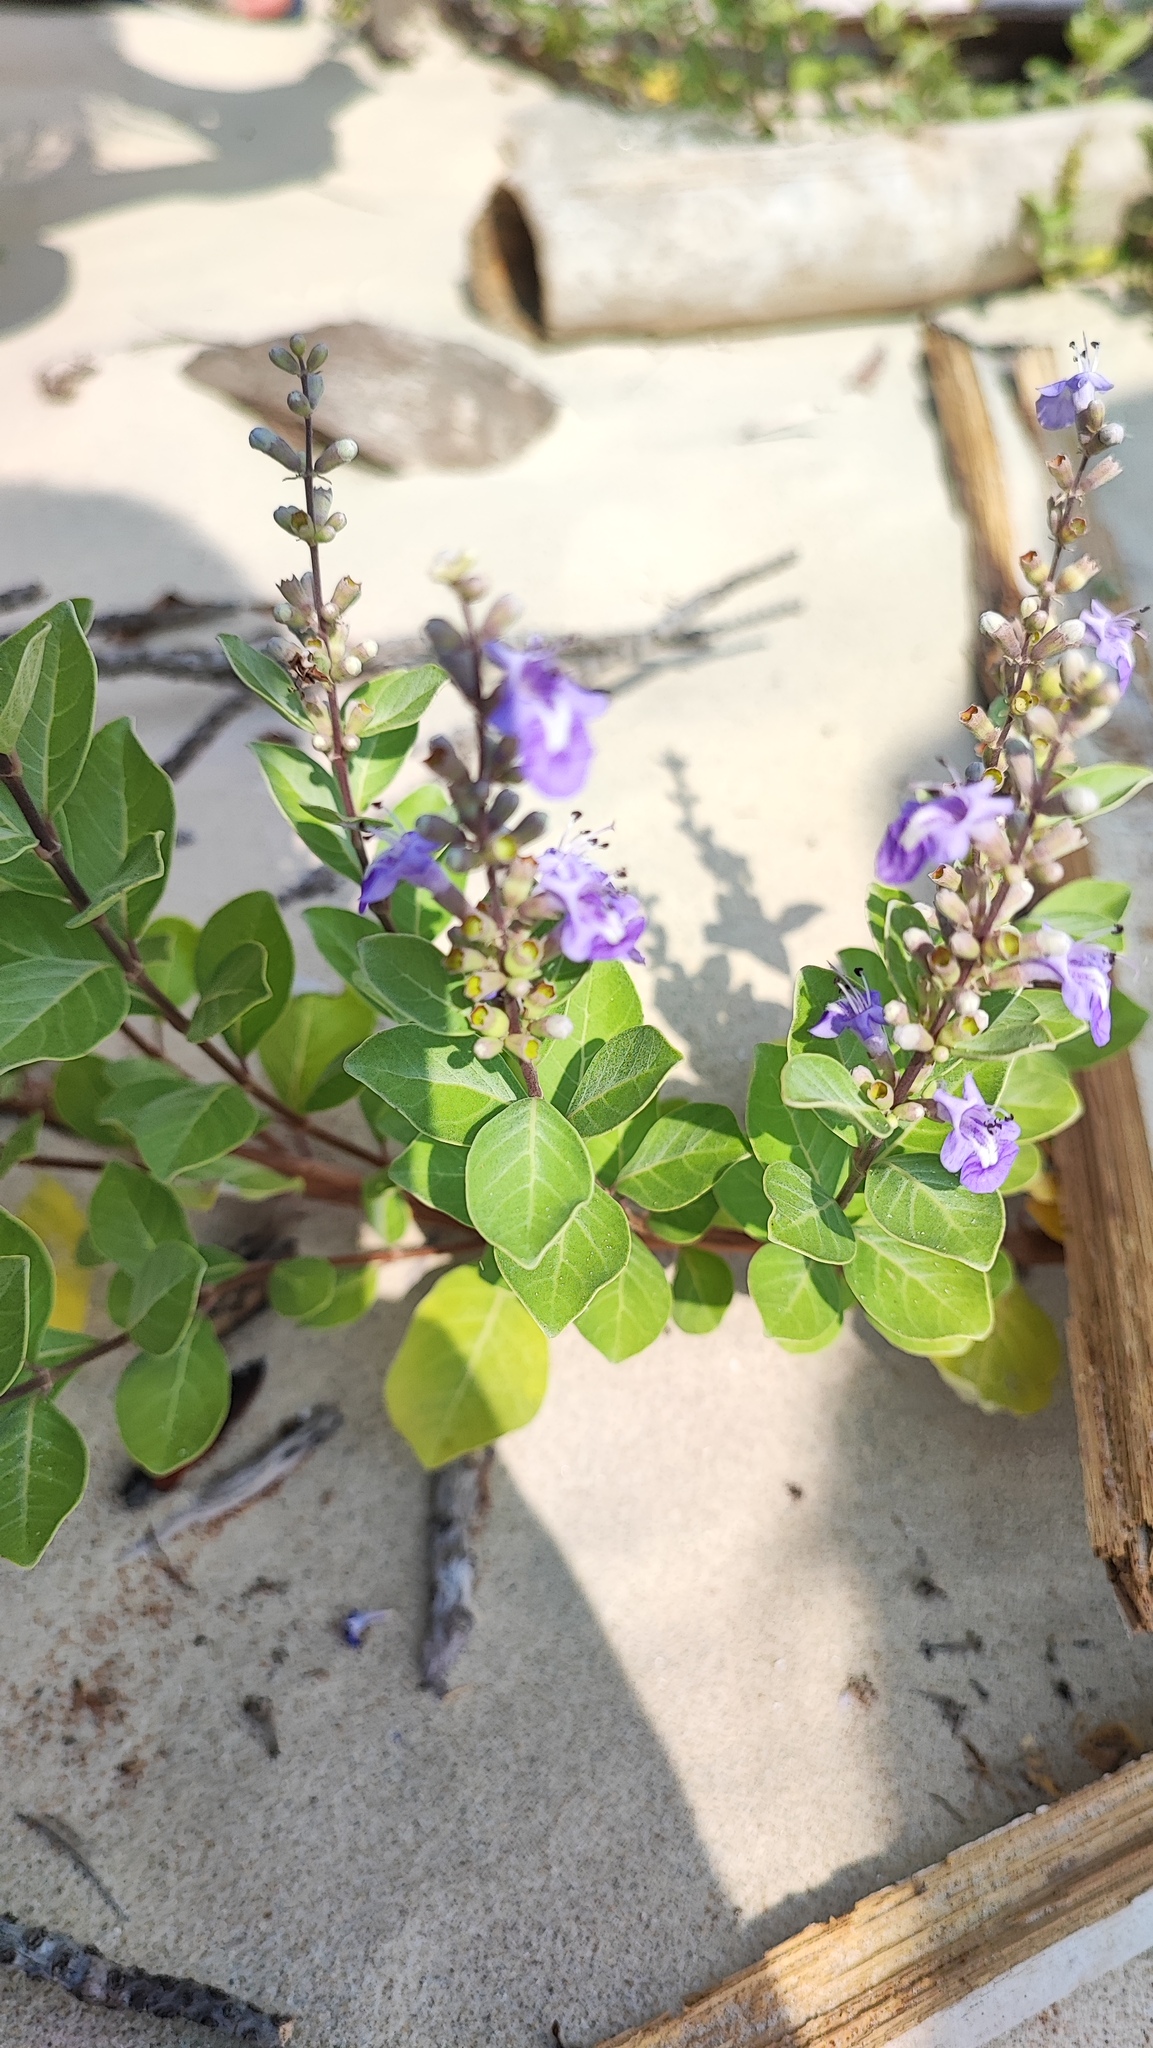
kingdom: Plantae
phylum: Tracheophyta
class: Magnoliopsida
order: Lamiales
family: Lamiaceae
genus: Vitex
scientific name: Vitex rotundifolia
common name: Beach vitex
